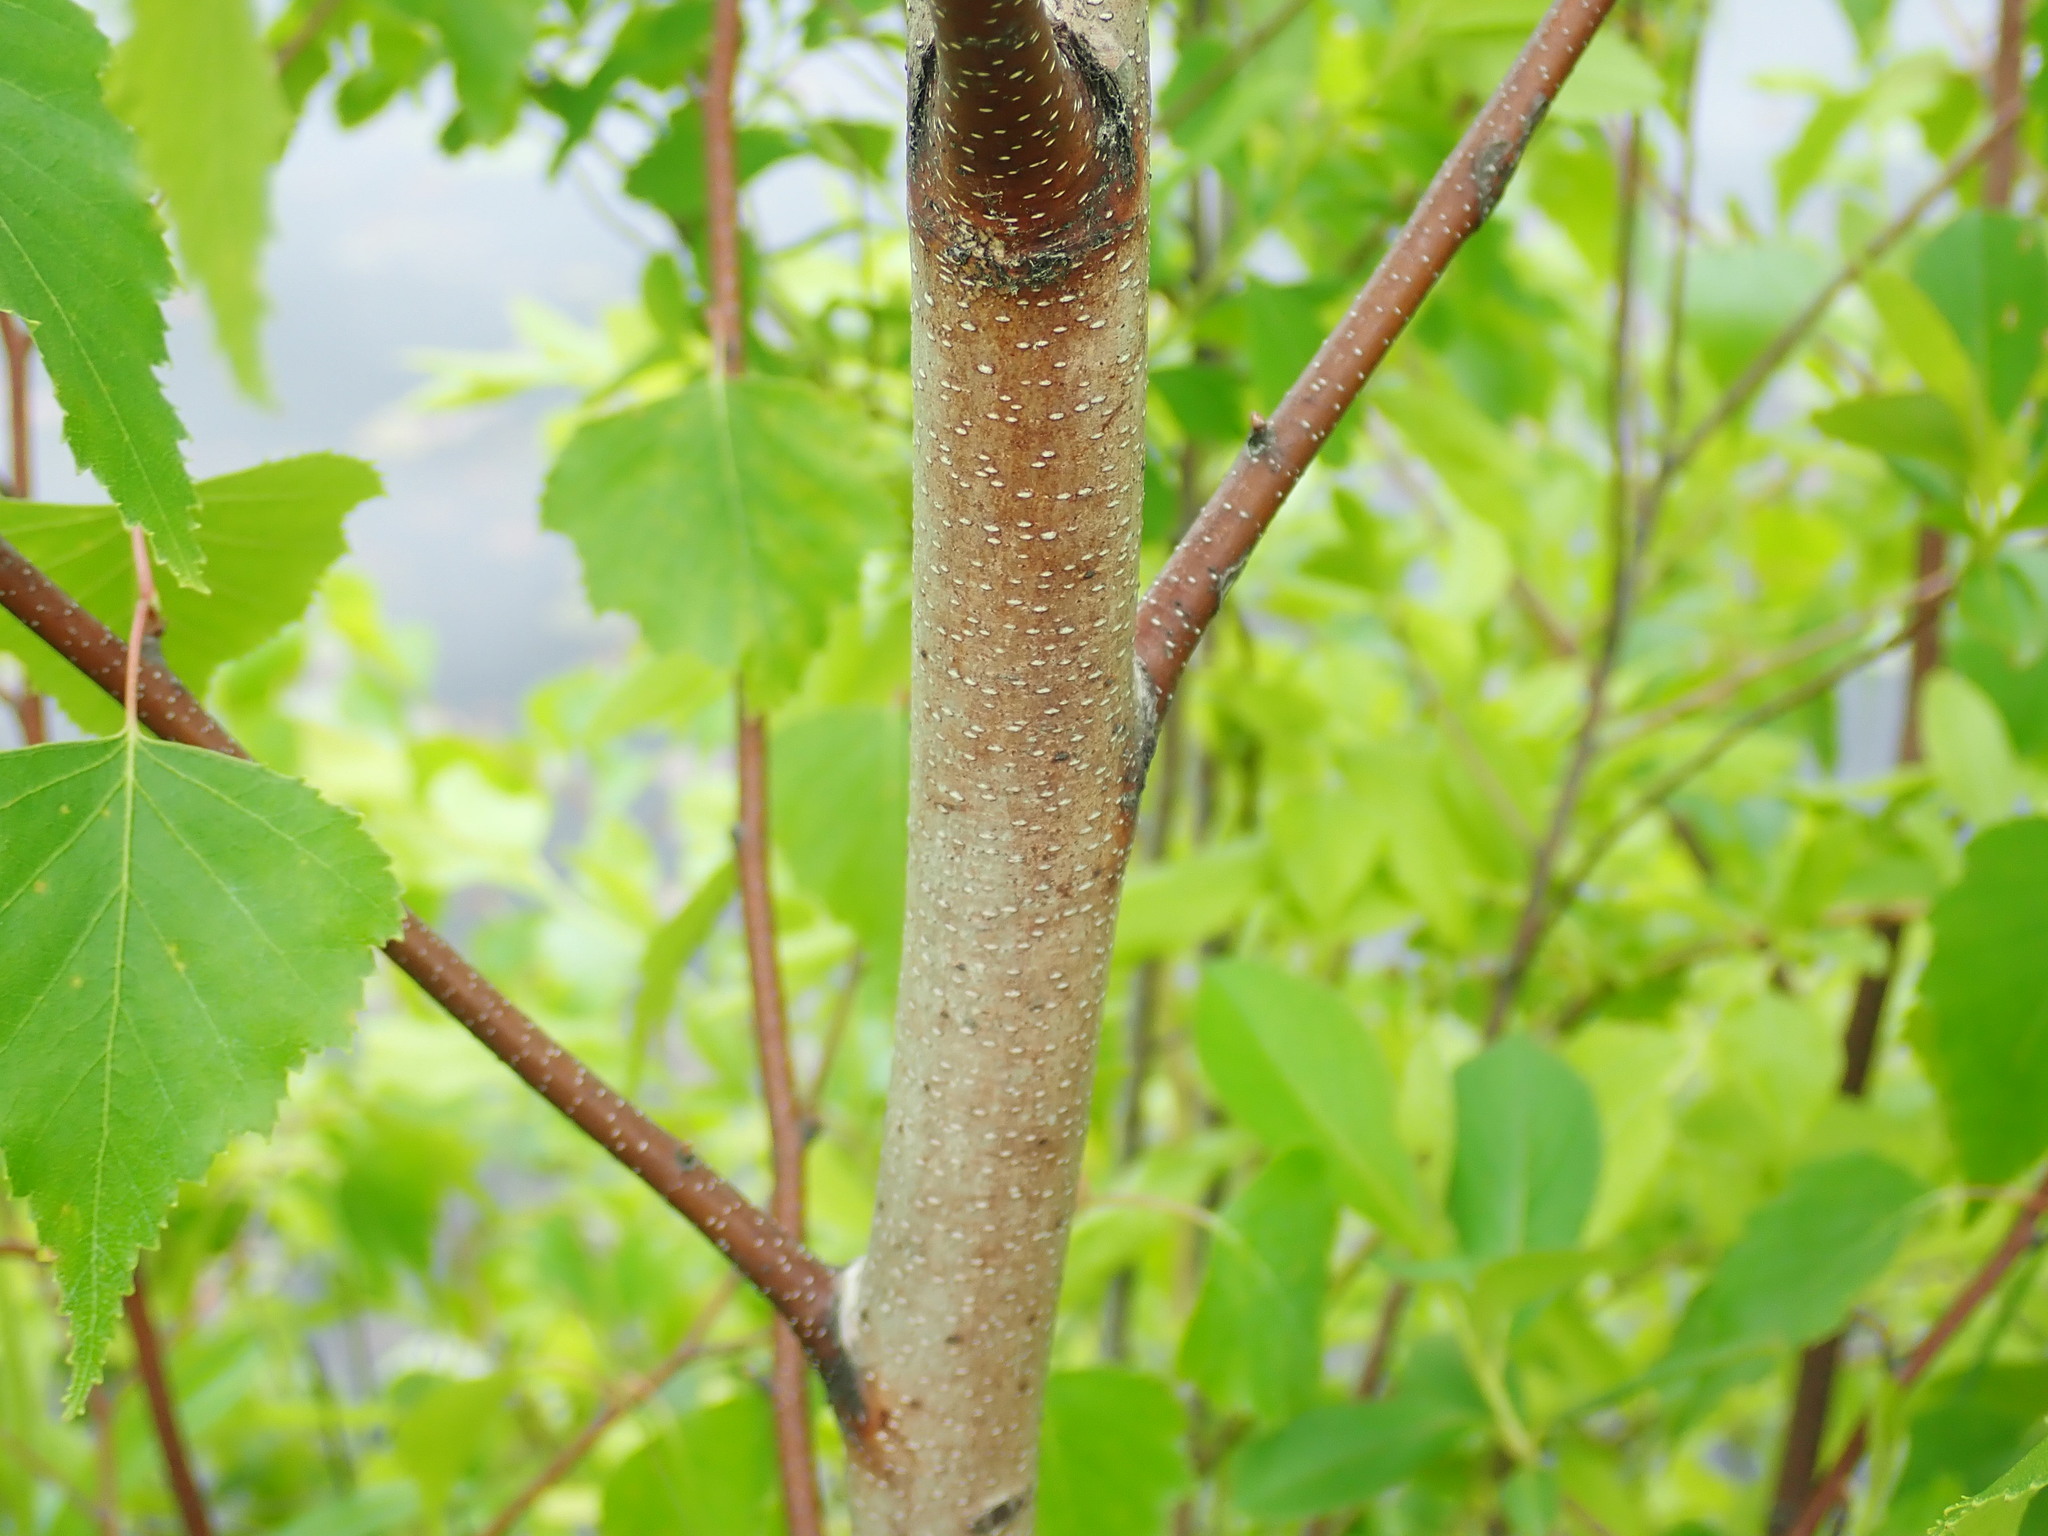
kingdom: Plantae
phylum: Tracheophyta
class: Magnoliopsida
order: Fagales
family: Betulaceae
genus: Betula
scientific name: Betula populifolia
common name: Fire birch
